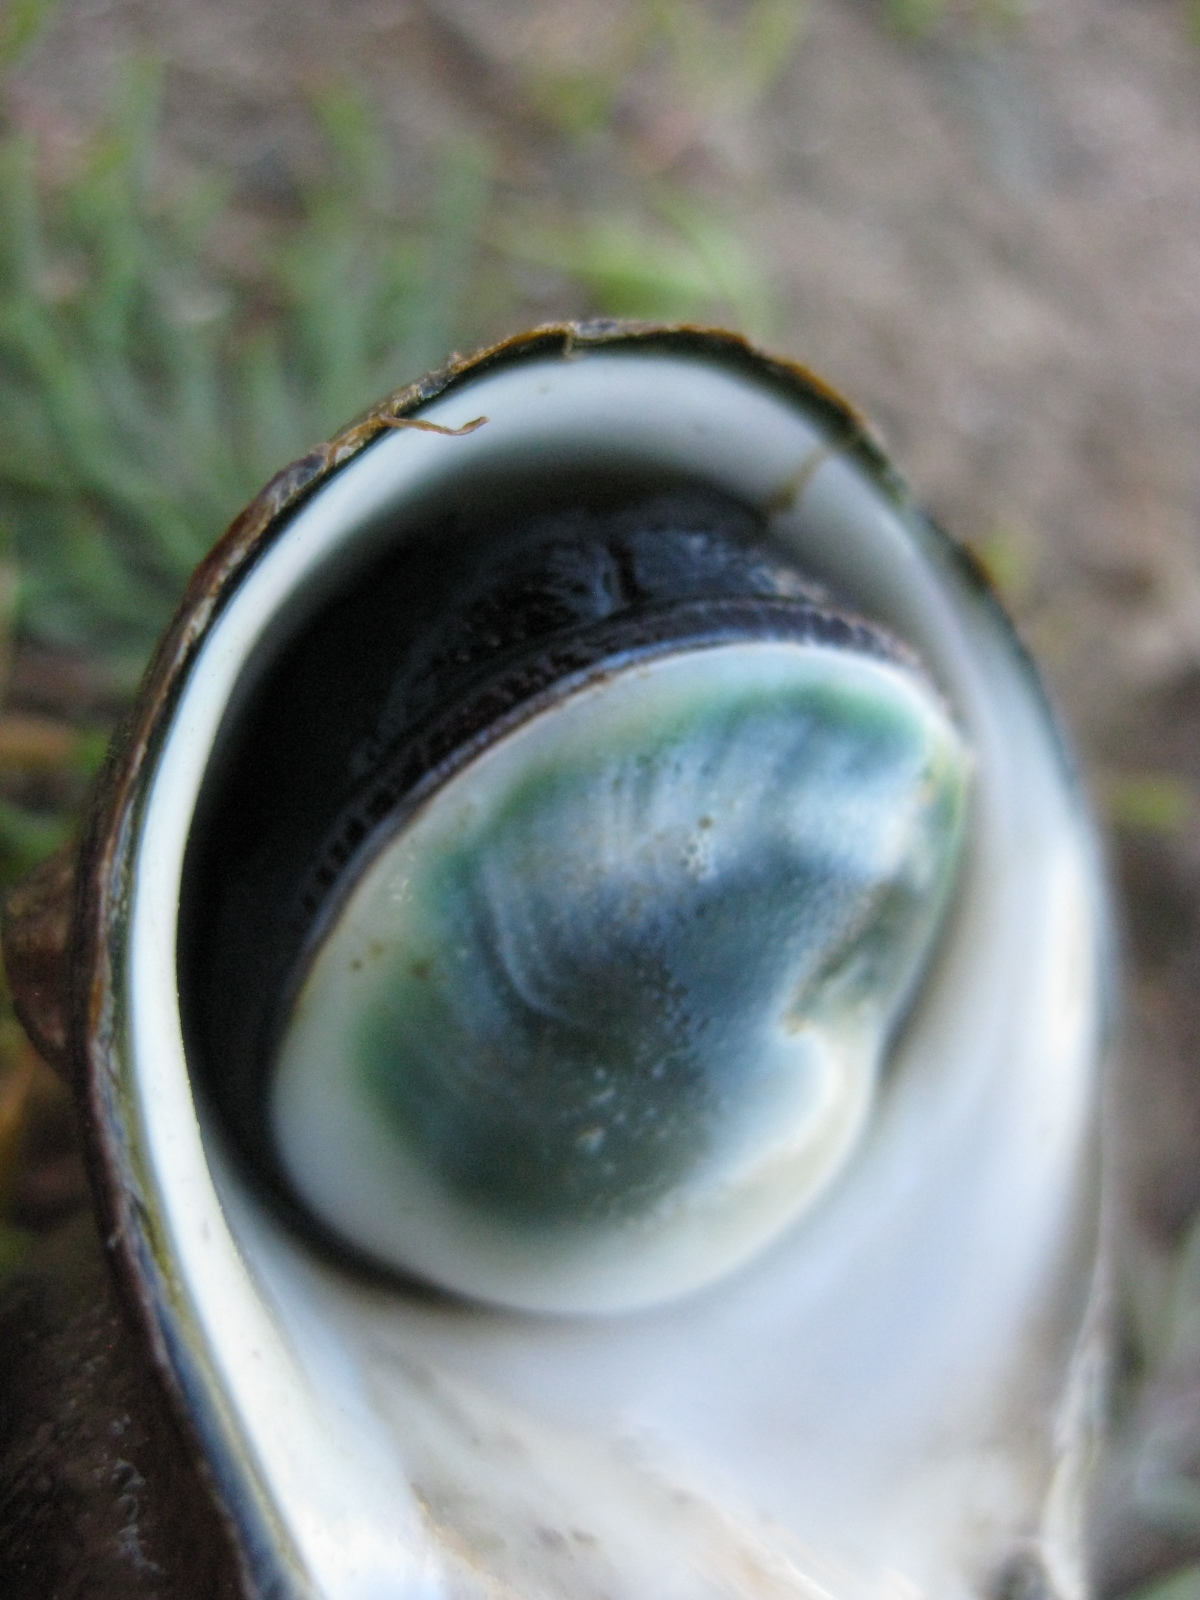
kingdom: Animalia
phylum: Mollusca
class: Gastropoda
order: Trochida
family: Turbinidae
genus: Lunella
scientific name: Lunella smaragda
